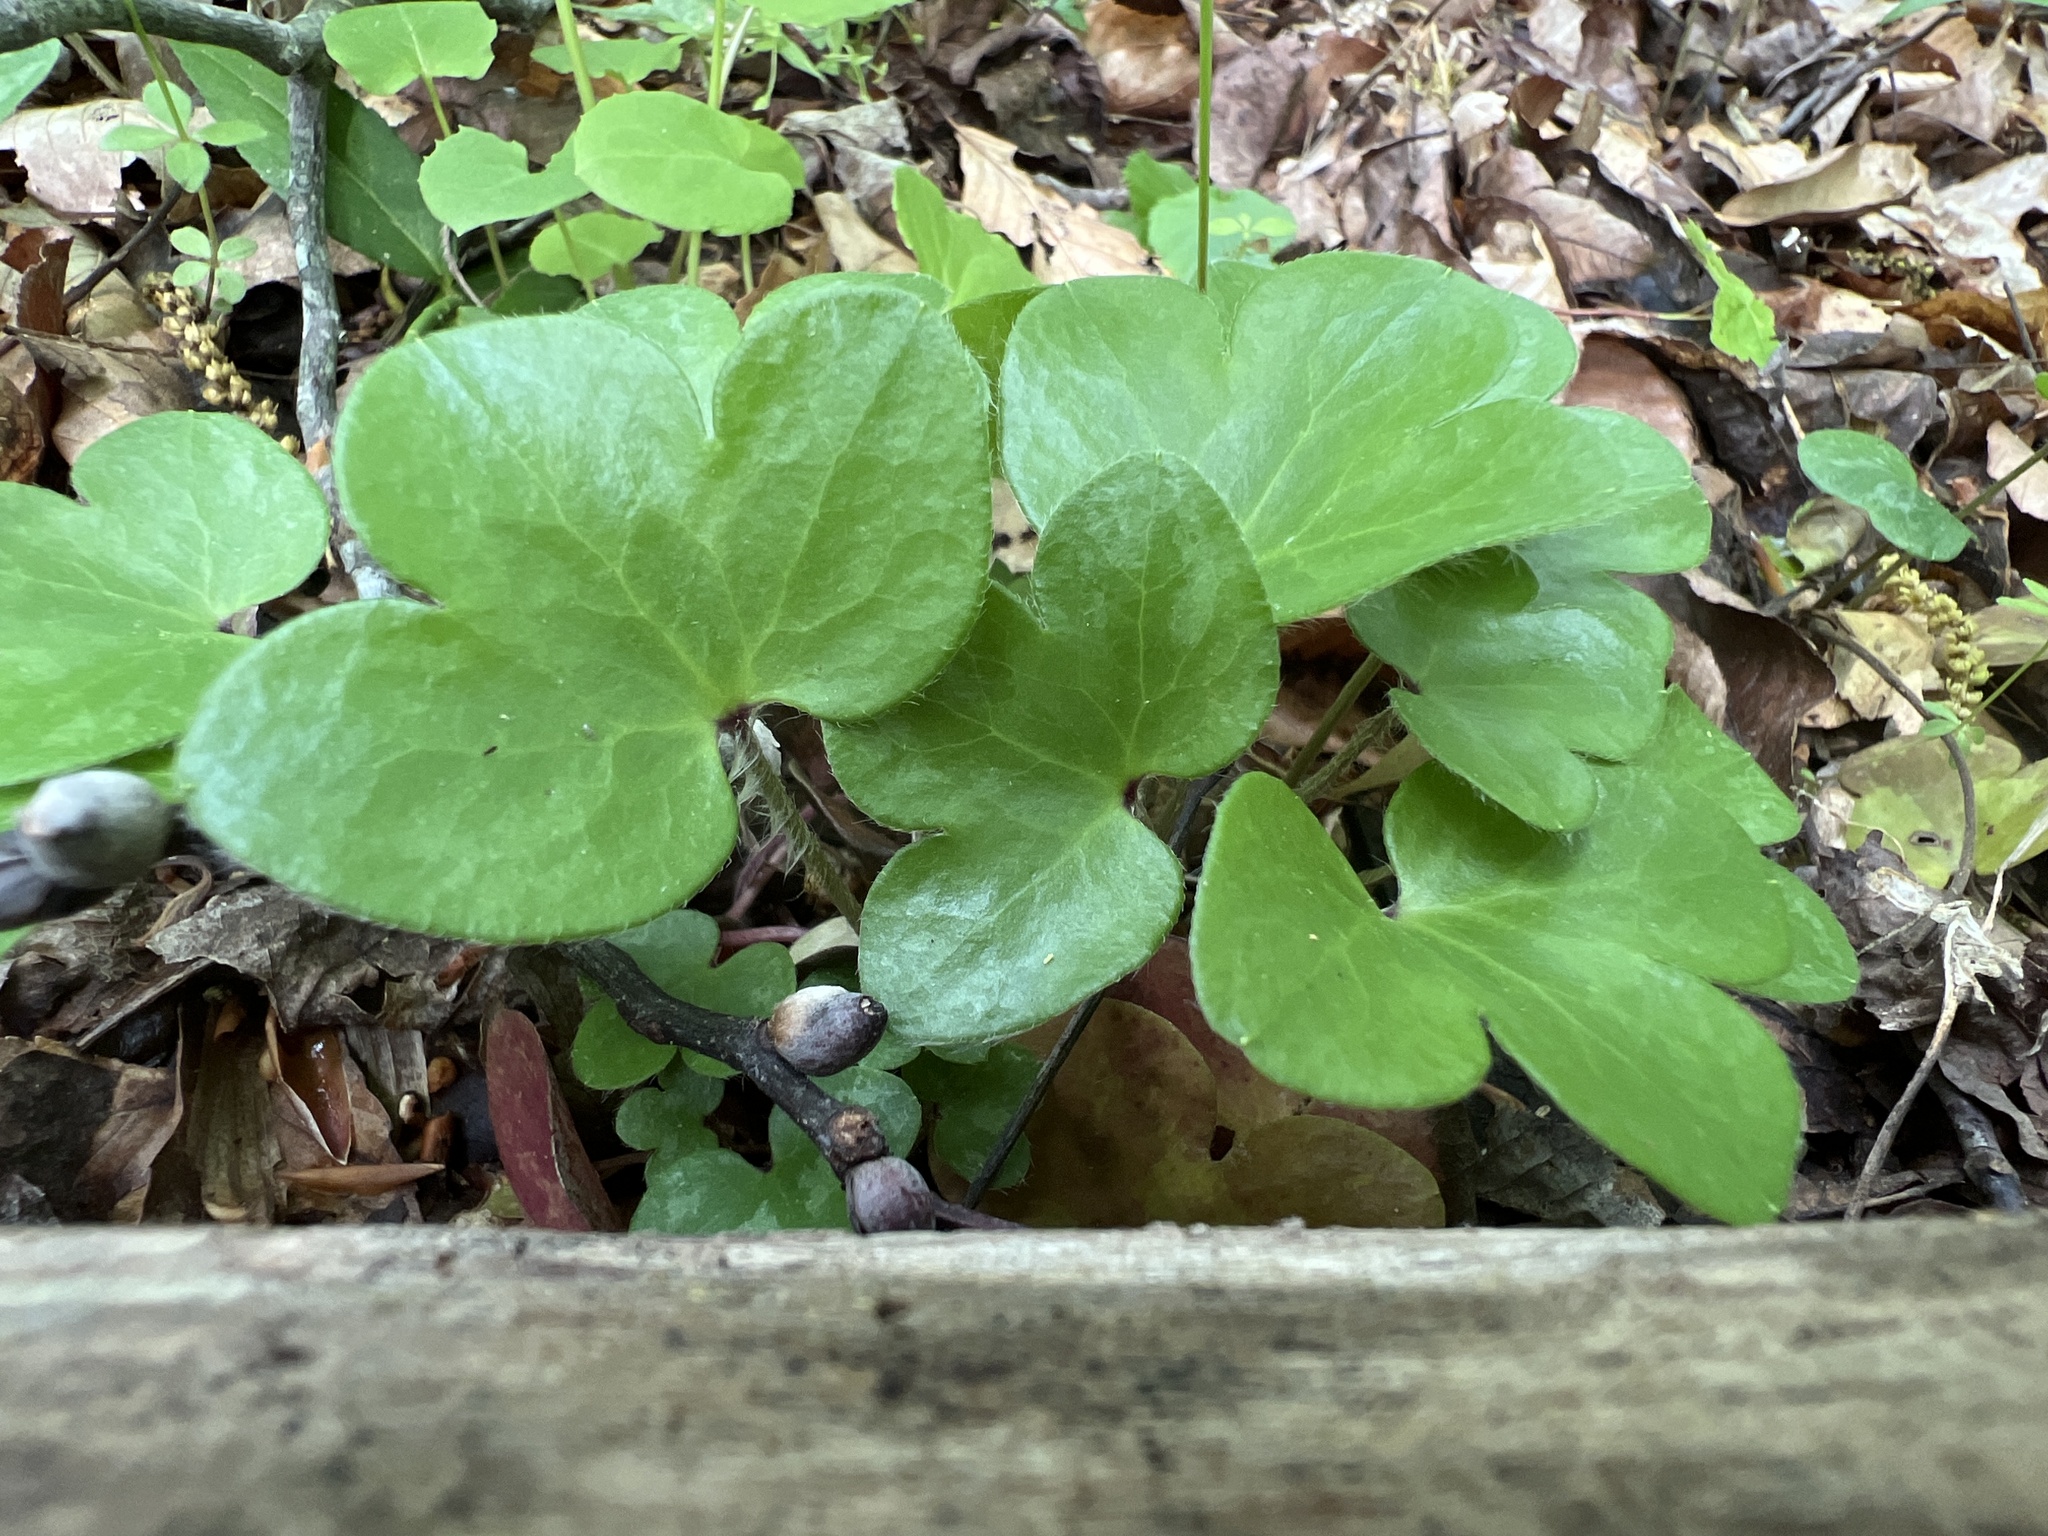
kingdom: Plantae
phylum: Tracheophyta
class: Magnoliopsida
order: Ranunculales
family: Ranunculaceae
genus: Hepatica
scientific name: Hepatica americana
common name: American hepatica
